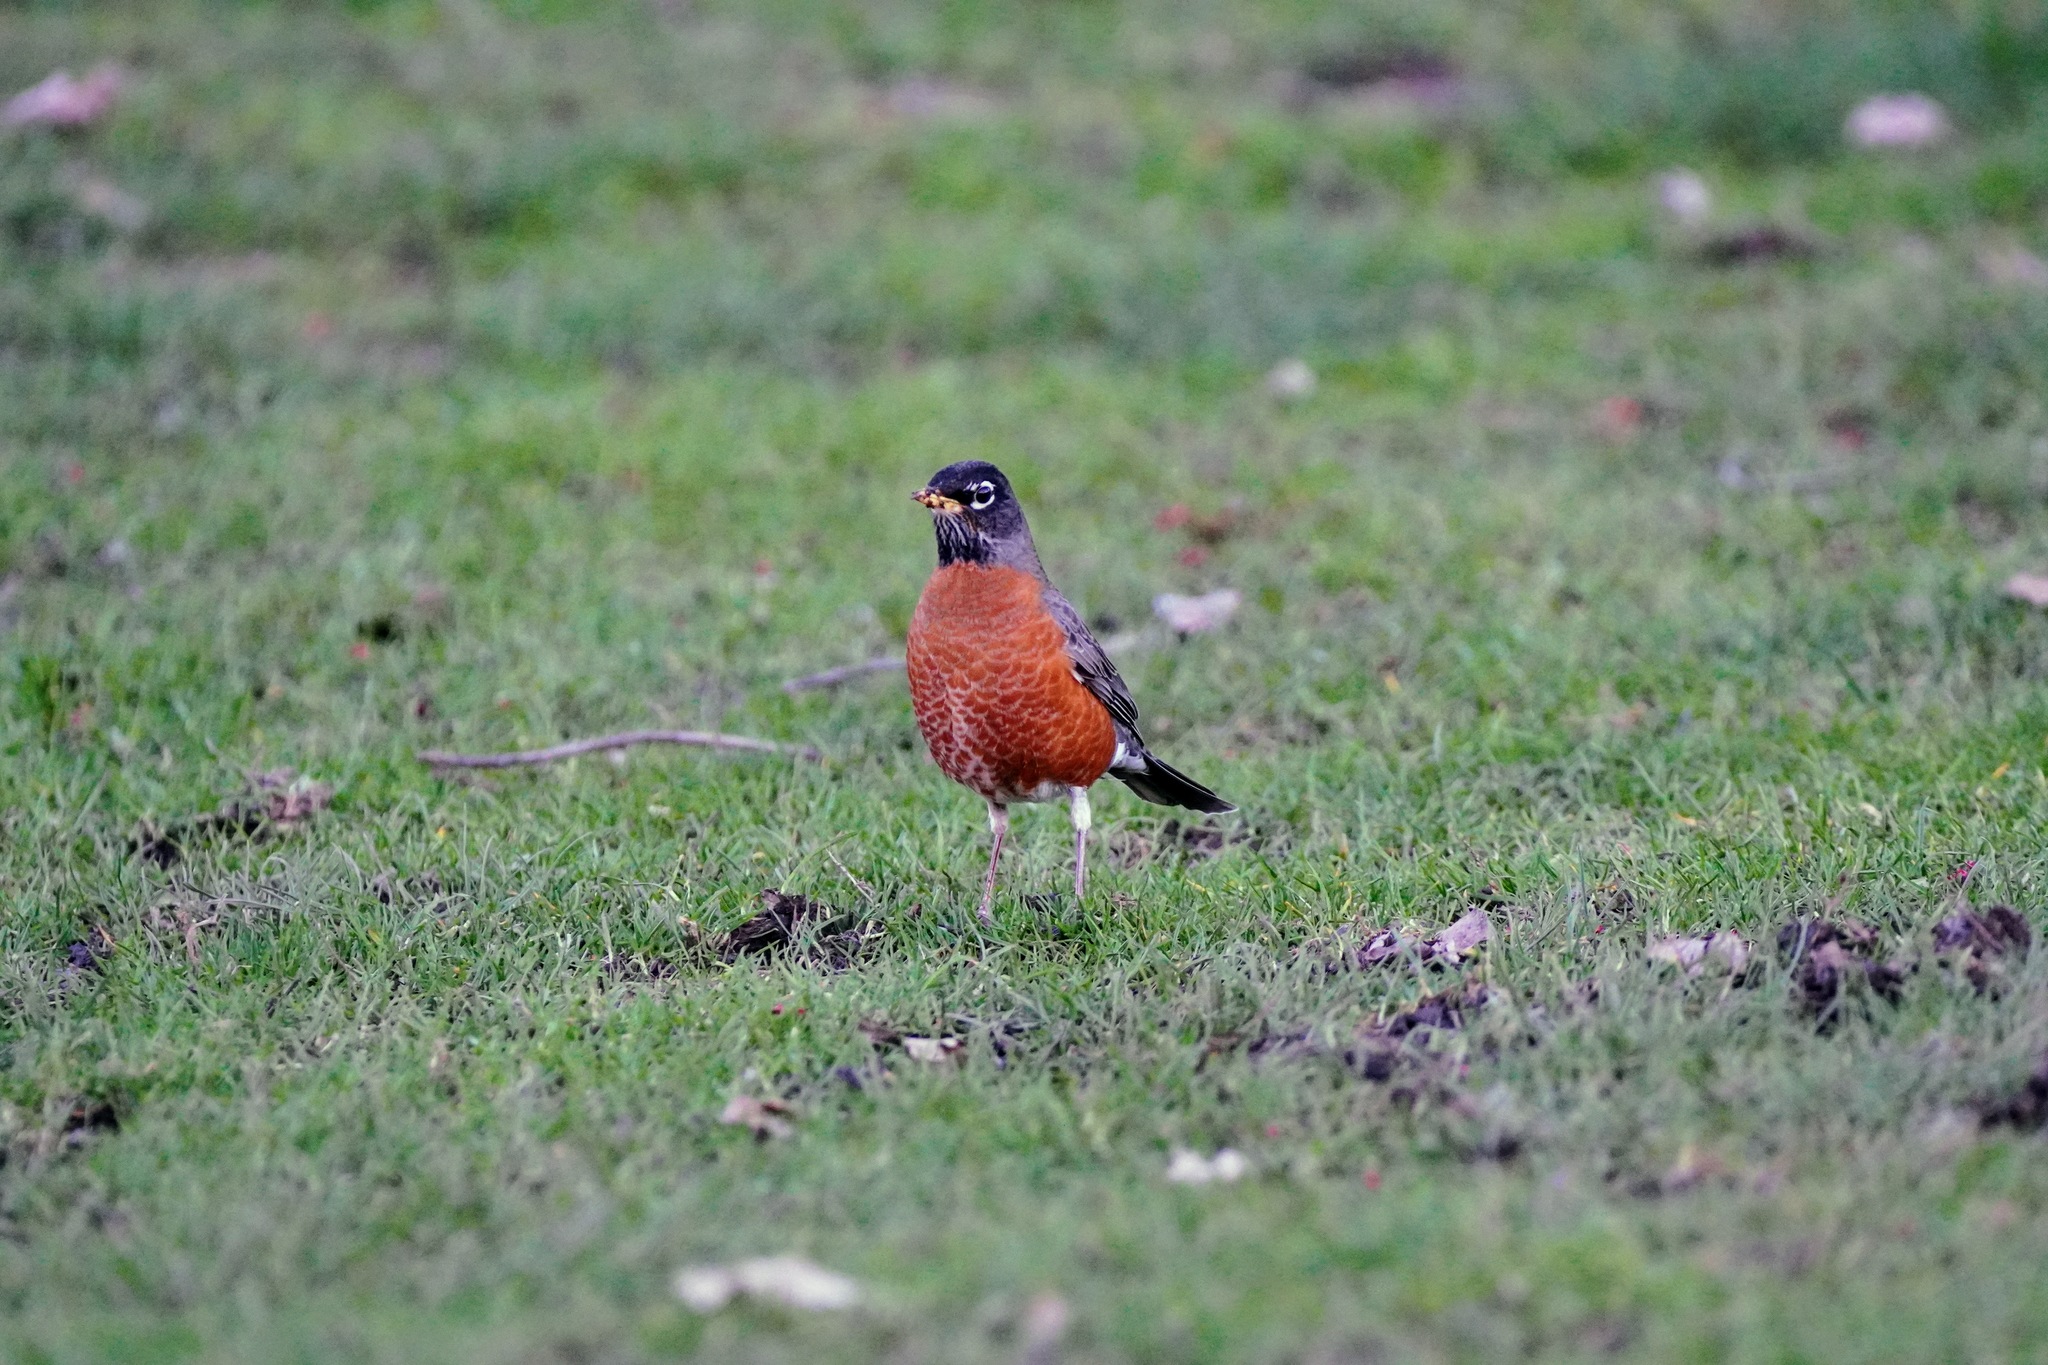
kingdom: Animalia
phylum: Chordata
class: Aves
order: Passeriformes
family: Turdidae
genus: Turdus
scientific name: Turdus migratorius
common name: American robin
